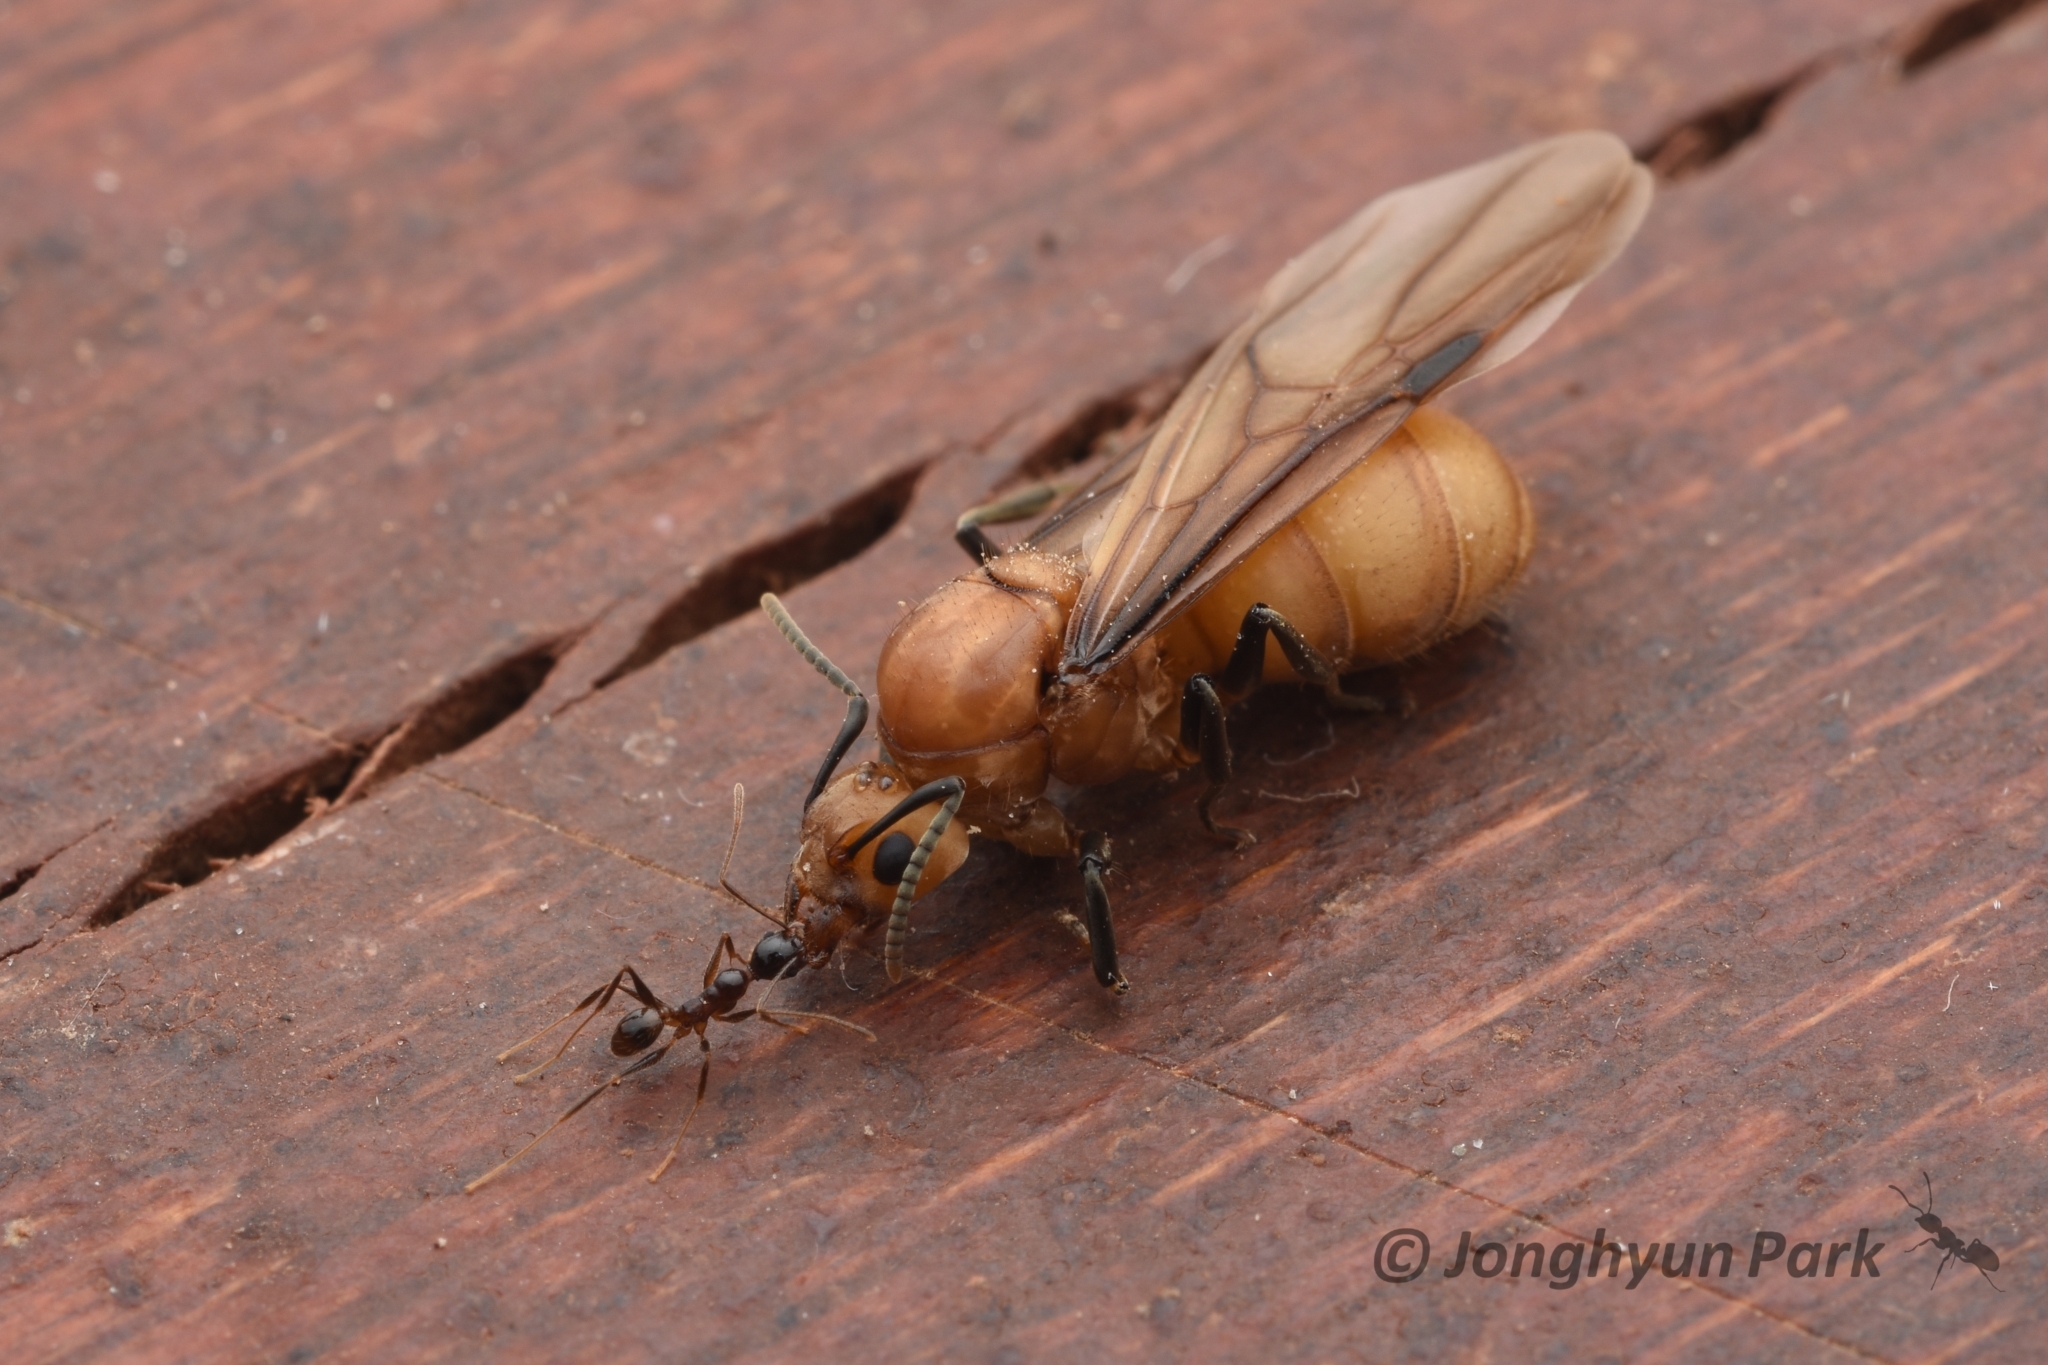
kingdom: Animalia
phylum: Arthropoda
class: Insecta
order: Hymenoptera
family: Formicidae
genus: Dolichoderus
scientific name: Dolichoderus doloniger
